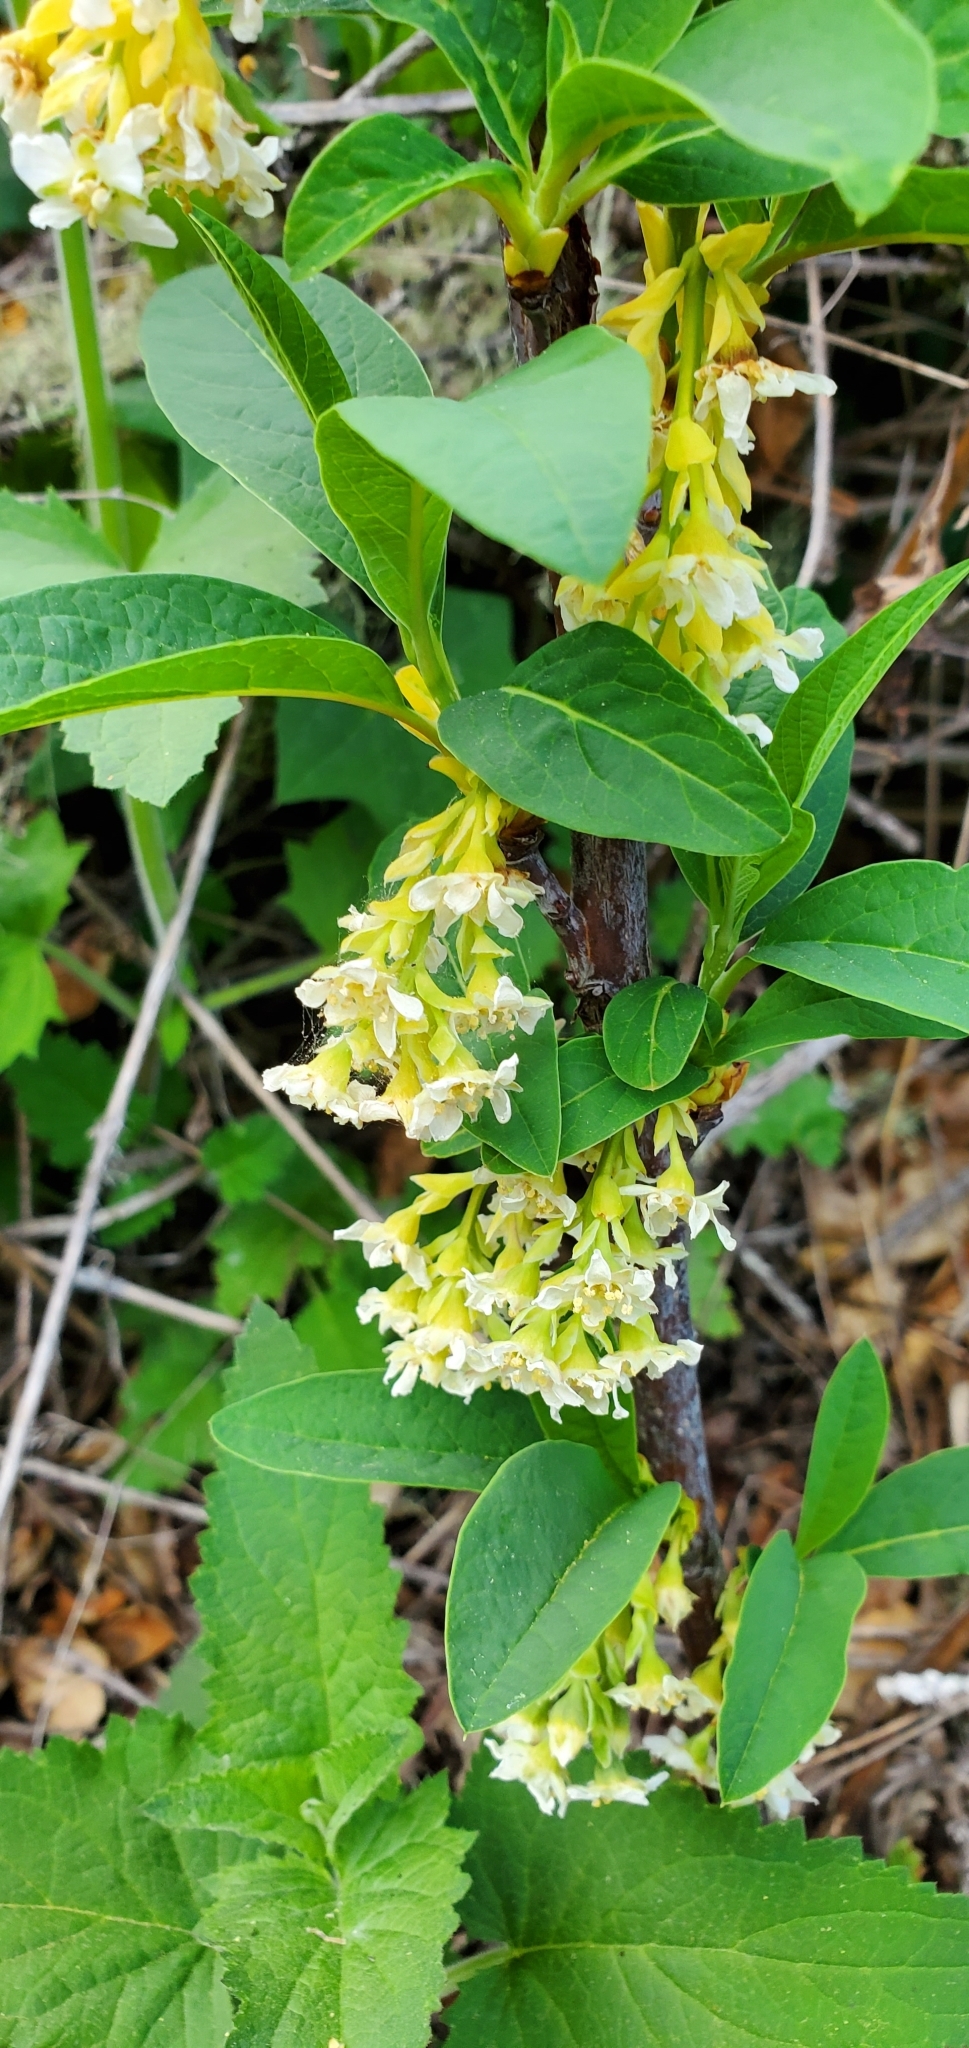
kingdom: Plantae
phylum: Tracheophyta
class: Magnoliopsida
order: Rosales
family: Rosaceae
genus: Oemleria
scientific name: Oemleria cerasiformis
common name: Osoberry
